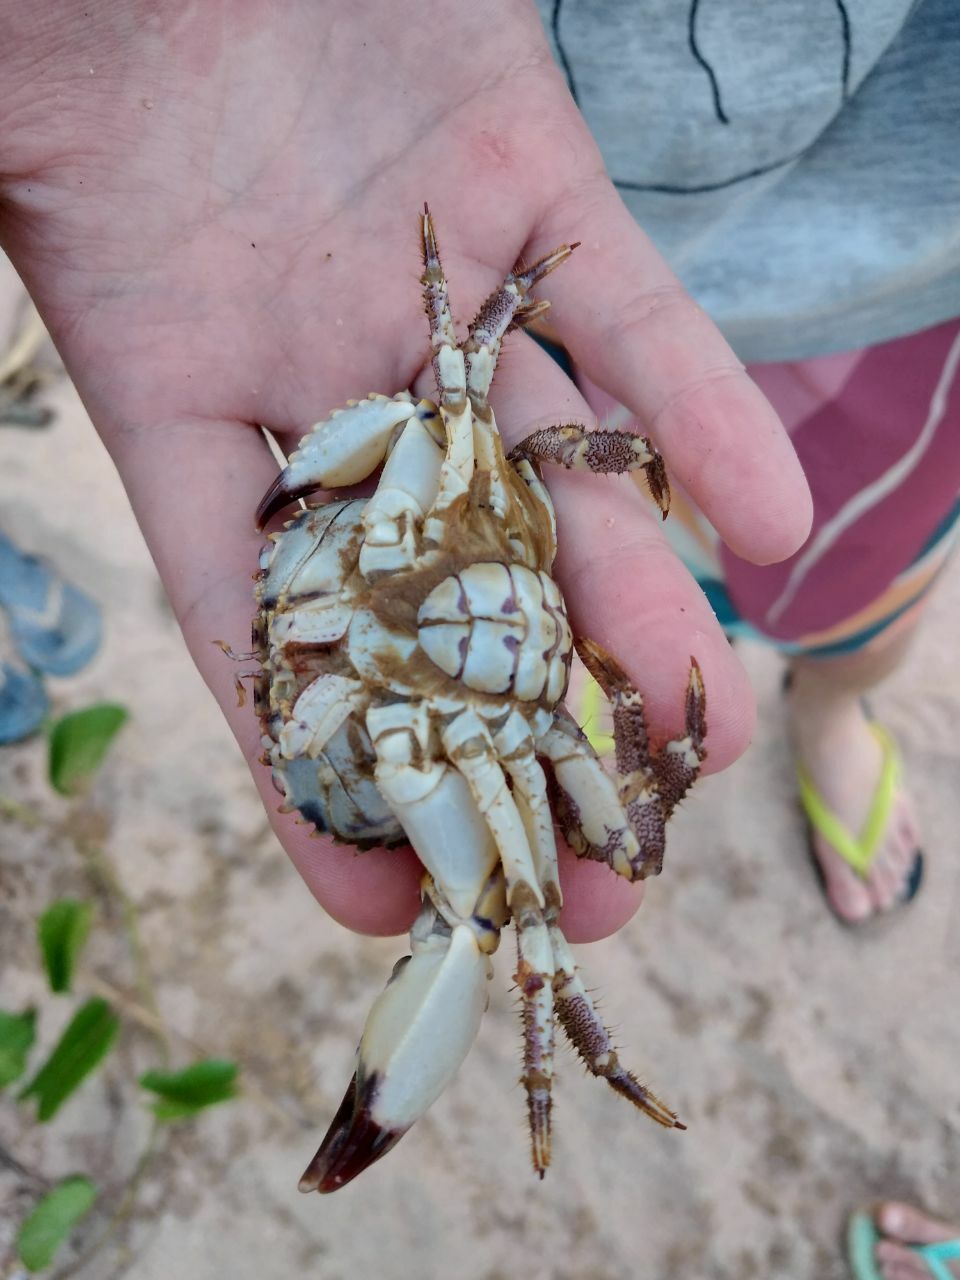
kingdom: Animalia
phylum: Arthropoda
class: Malacostraca
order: Decapoda
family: Eriphiidae
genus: Eriphia
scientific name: Eriphia gonagra
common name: Calico crab
